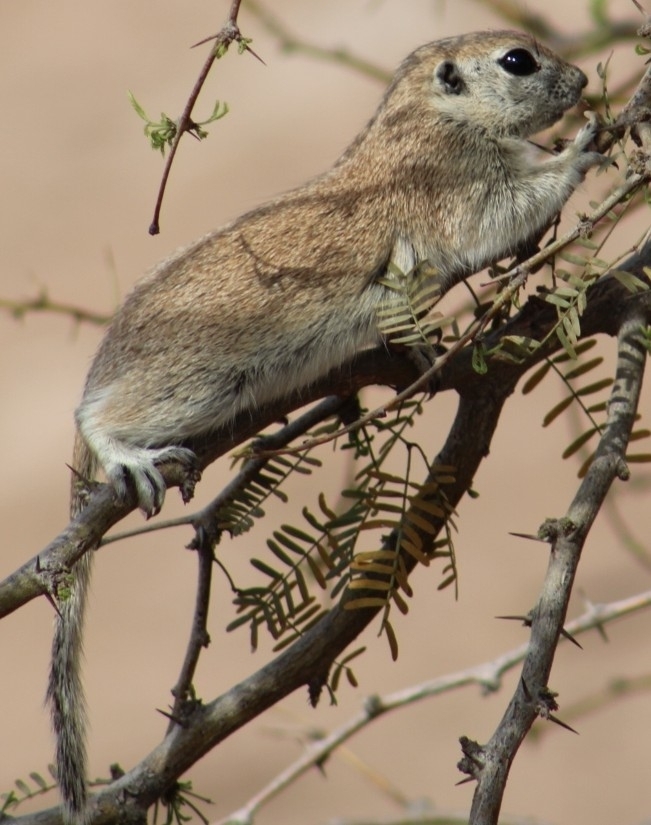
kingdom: Animalia
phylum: Chordata
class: Mammalia
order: Rodentia
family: Sciuridae
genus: Xerospermophilus
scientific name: Xerospermophilus tereticaudus
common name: Round-tailed ground squirrel
